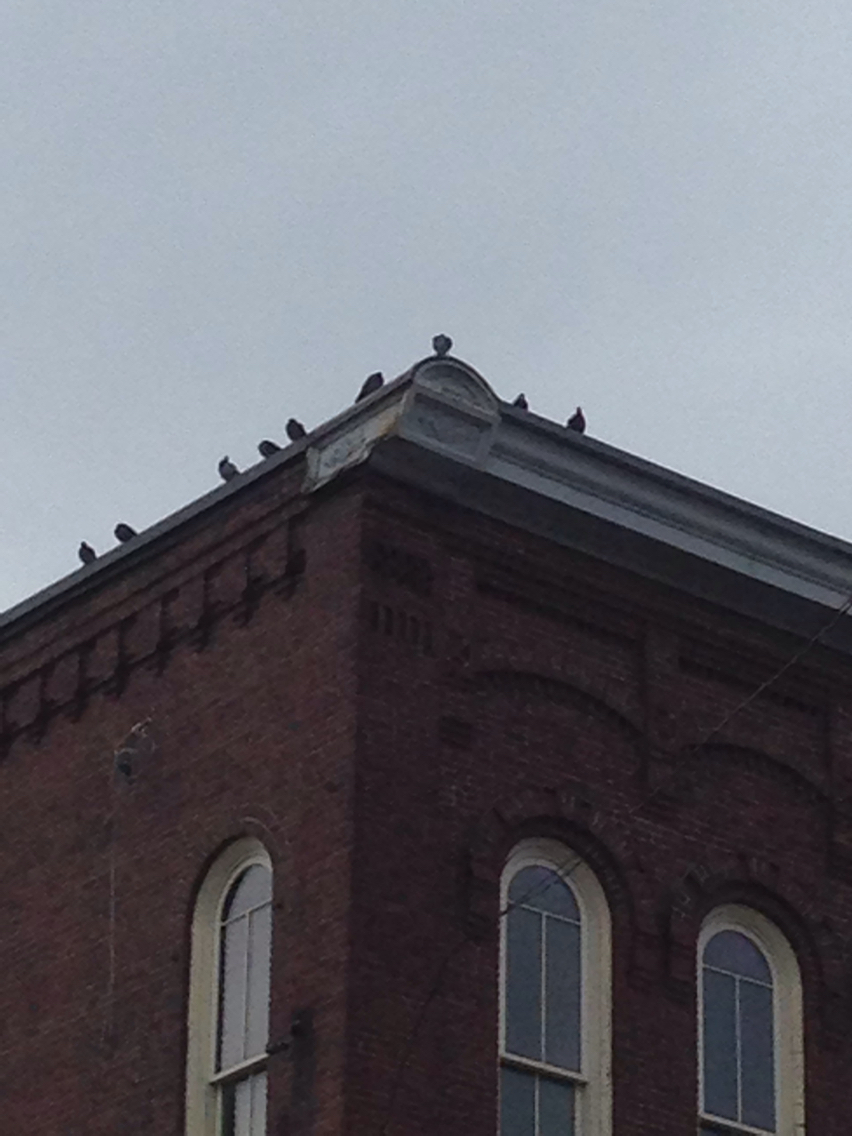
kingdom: Animalia
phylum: Chordata
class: Aves
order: Columbiformes
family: Columbidae
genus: Columba
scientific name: Columba livia
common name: Rock pigeon
